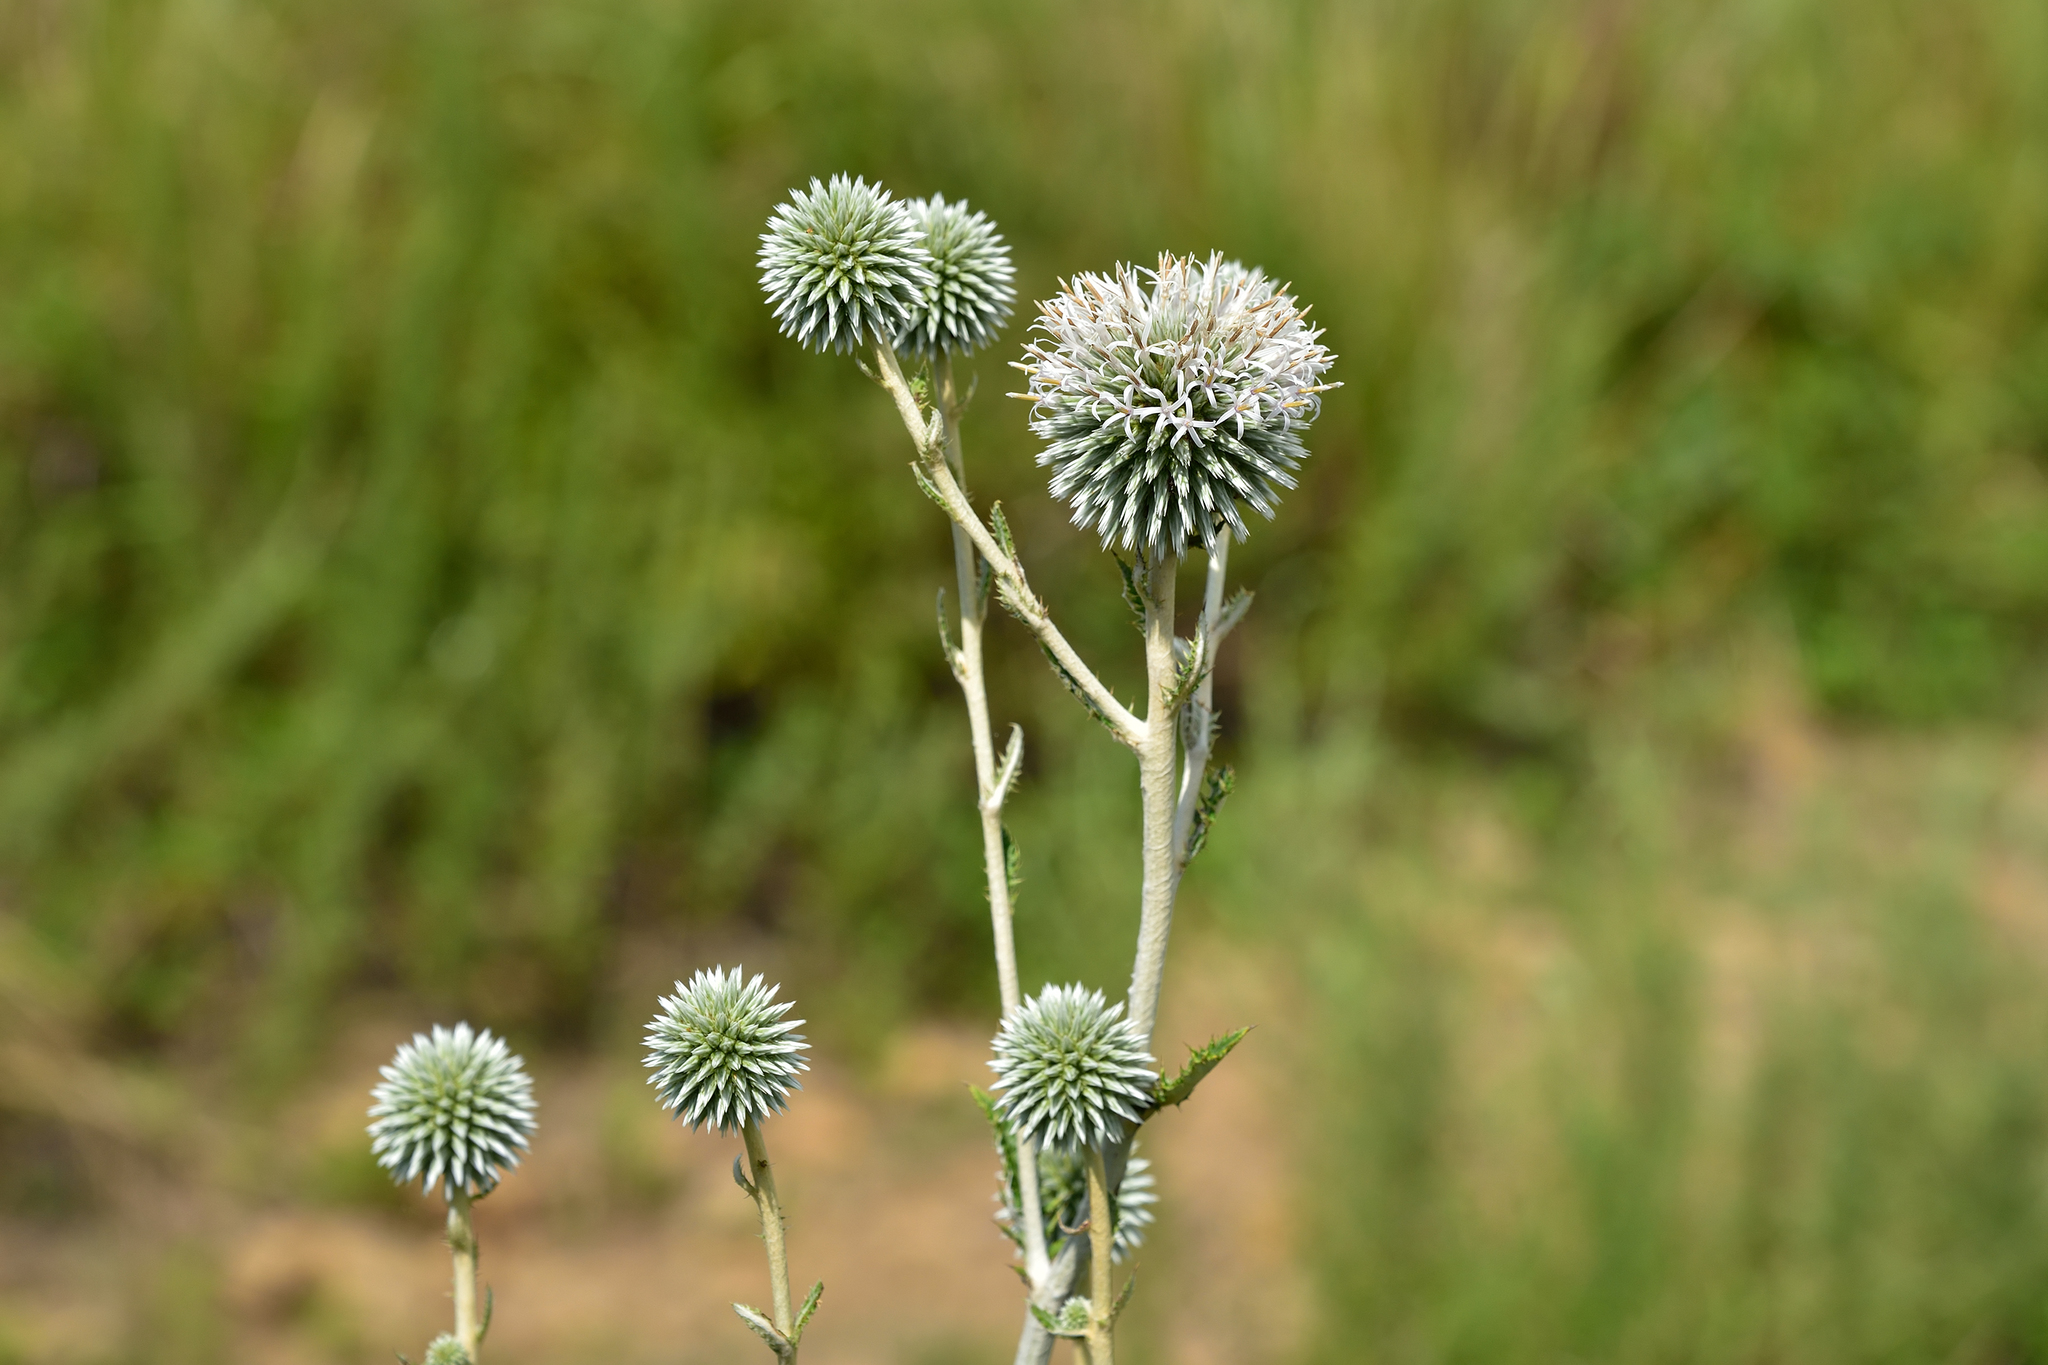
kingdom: Plantae
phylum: Tracheophyta
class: Magnoliopsida
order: Asterales
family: Asteraceae
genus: Echinops
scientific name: Echinops grijsii
